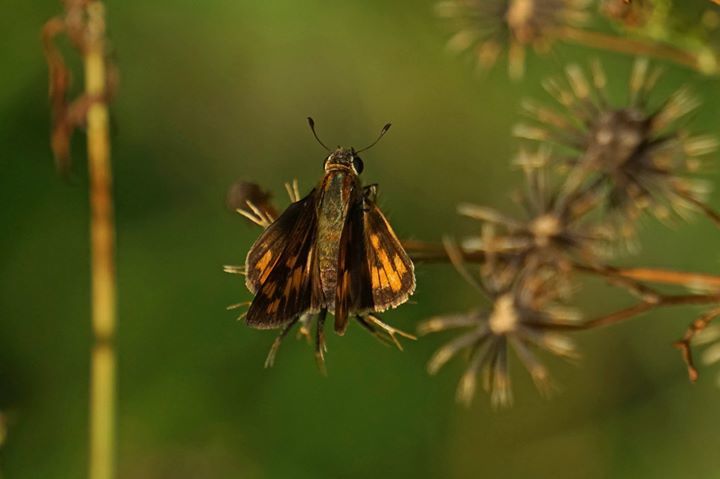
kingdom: Animalia
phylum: Arthropoda
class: Insecta
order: Lepidoptera
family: Hesperiidae
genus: Hylephila
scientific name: Hylephila phyleus
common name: Fiery skipper
